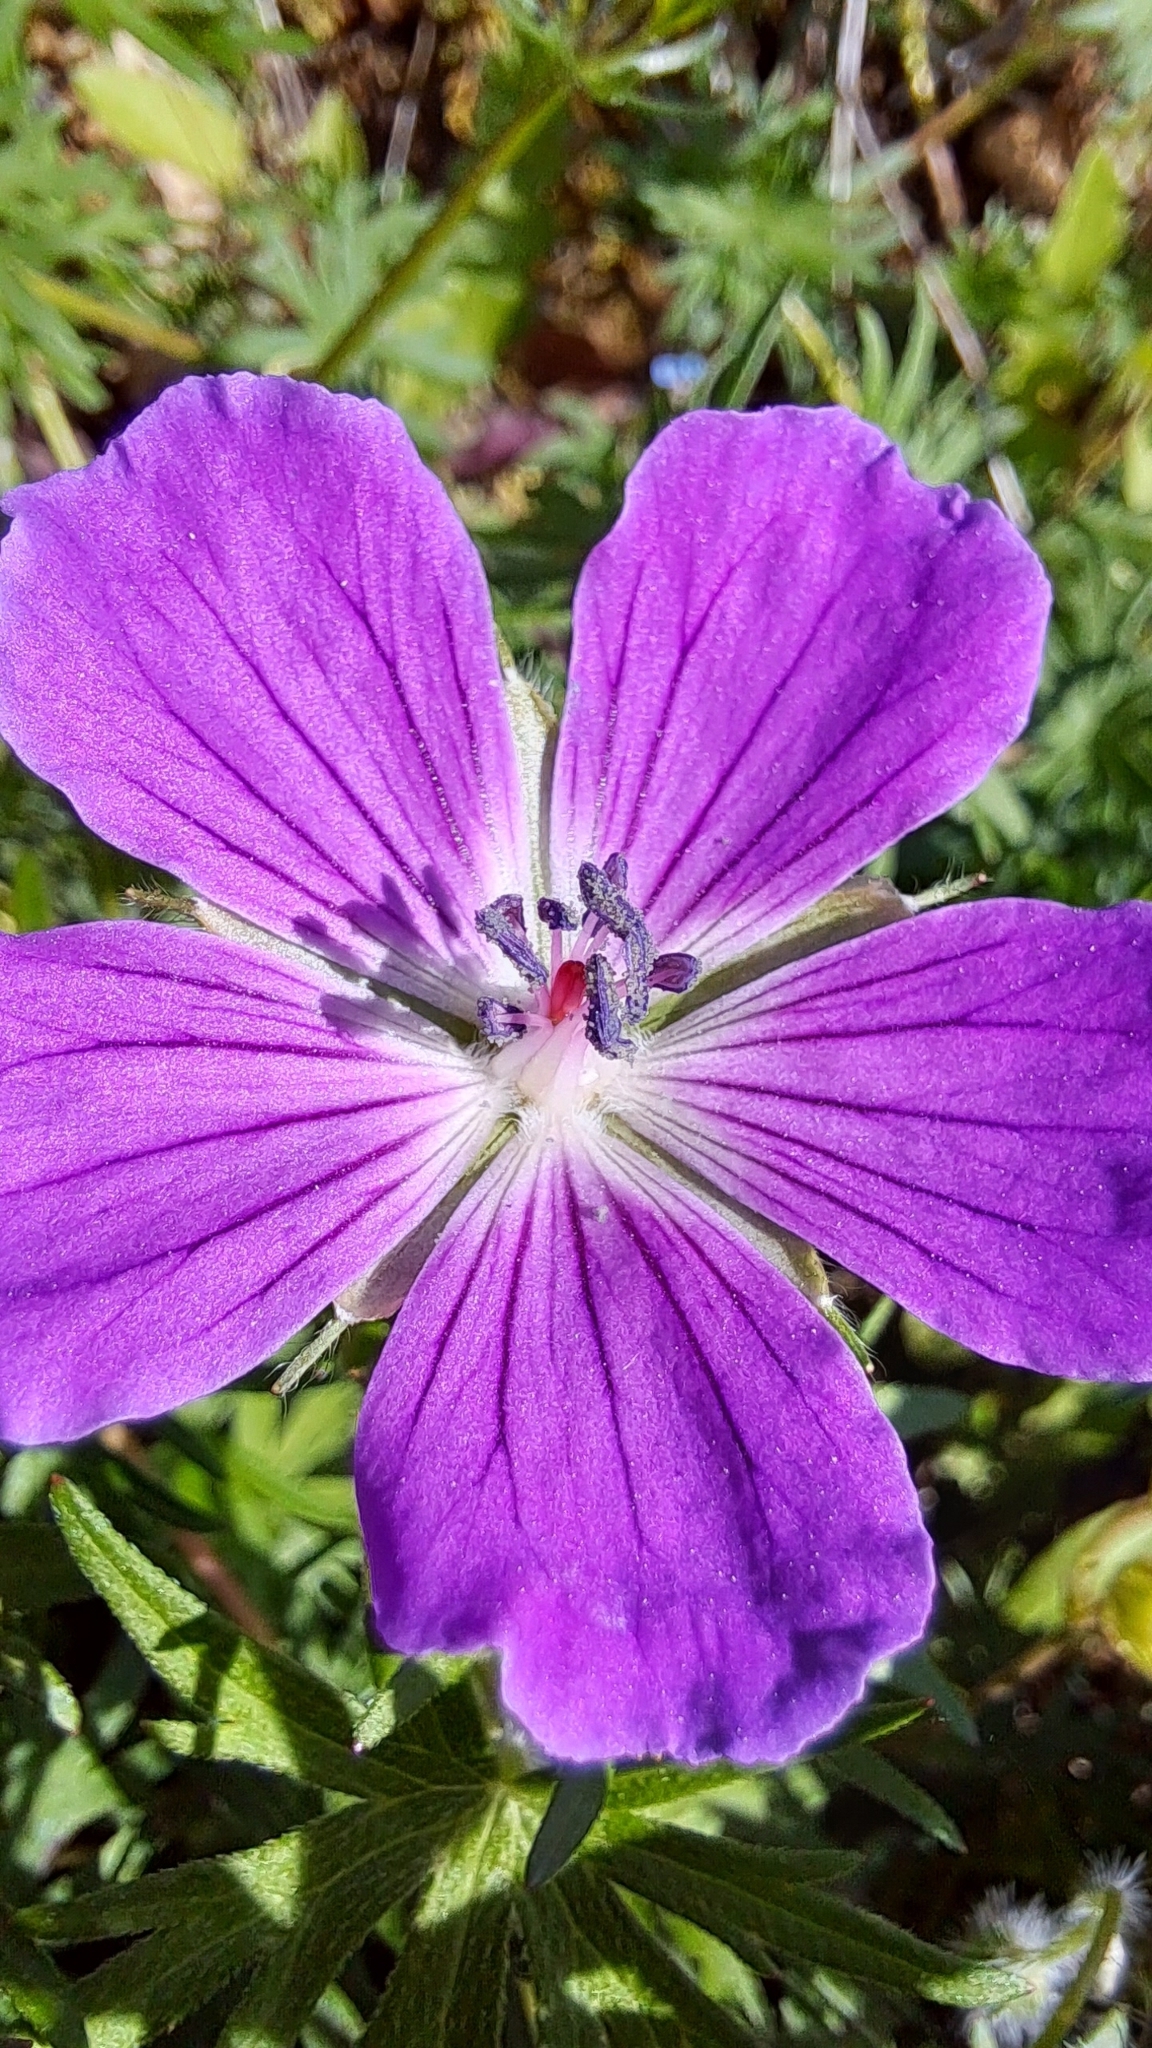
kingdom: Plantae
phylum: Tracheophyta
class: Magnoliopsida
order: Geraniales
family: Geraniaceae
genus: Geranium
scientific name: Geranium sanguineum
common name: Bloody crane's-bill
